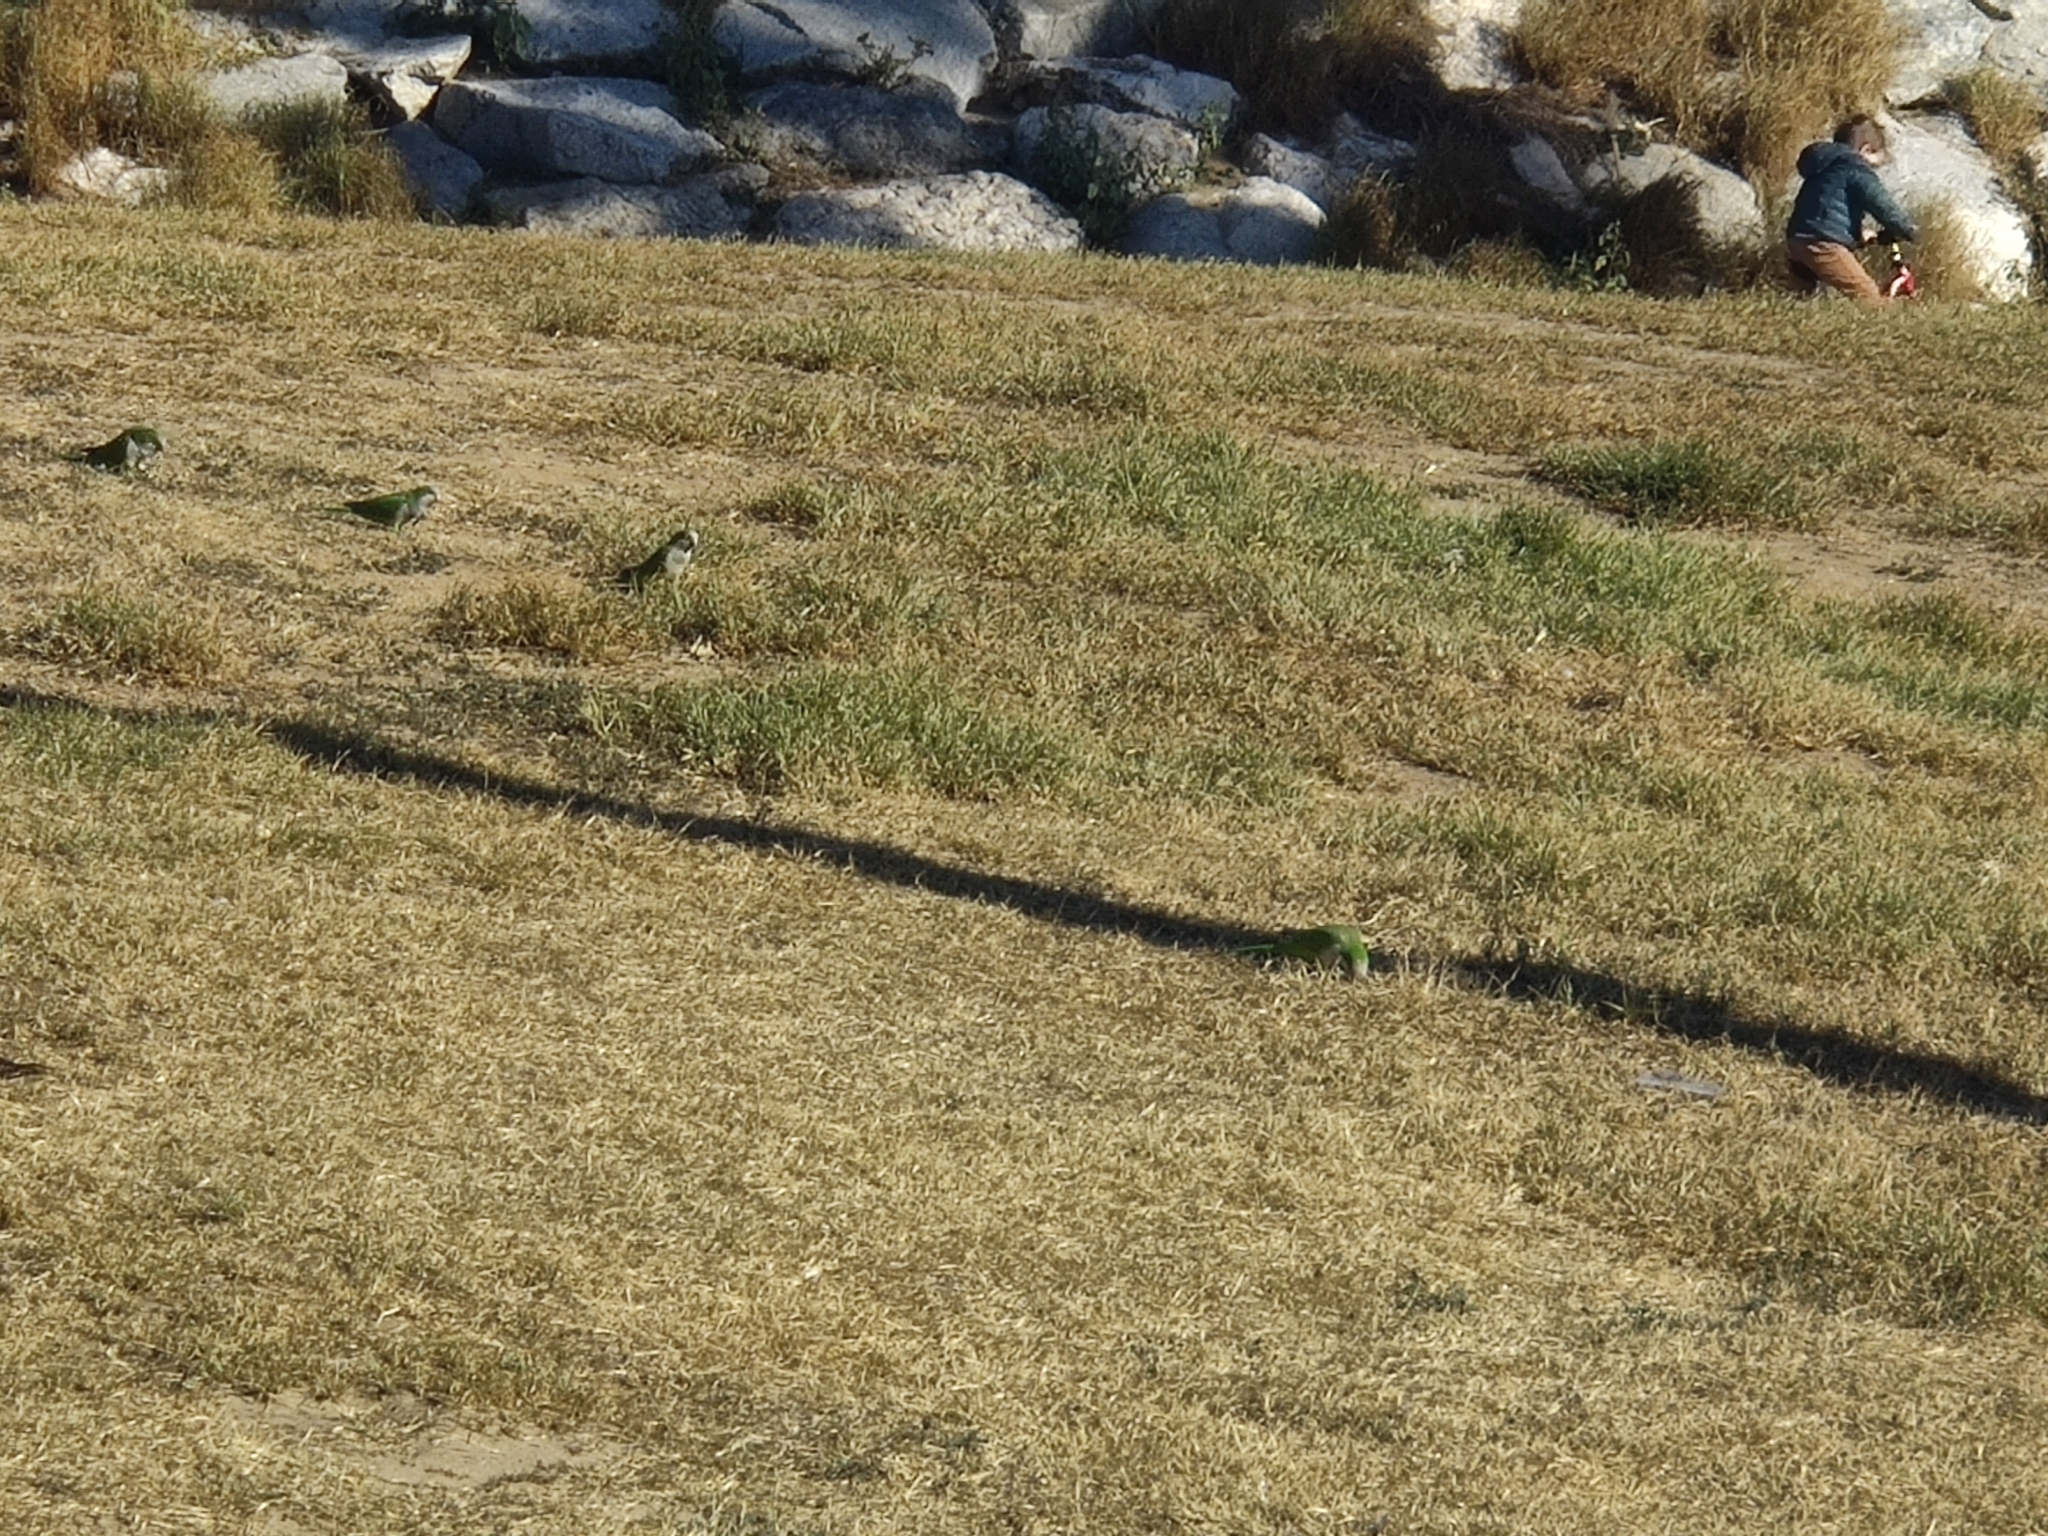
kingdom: Animalia
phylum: Chordata
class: Aves
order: Psittaciformes
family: Psittacidae
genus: Myiopsitta
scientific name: Myiopsitta monachus
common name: Monk parakeet
